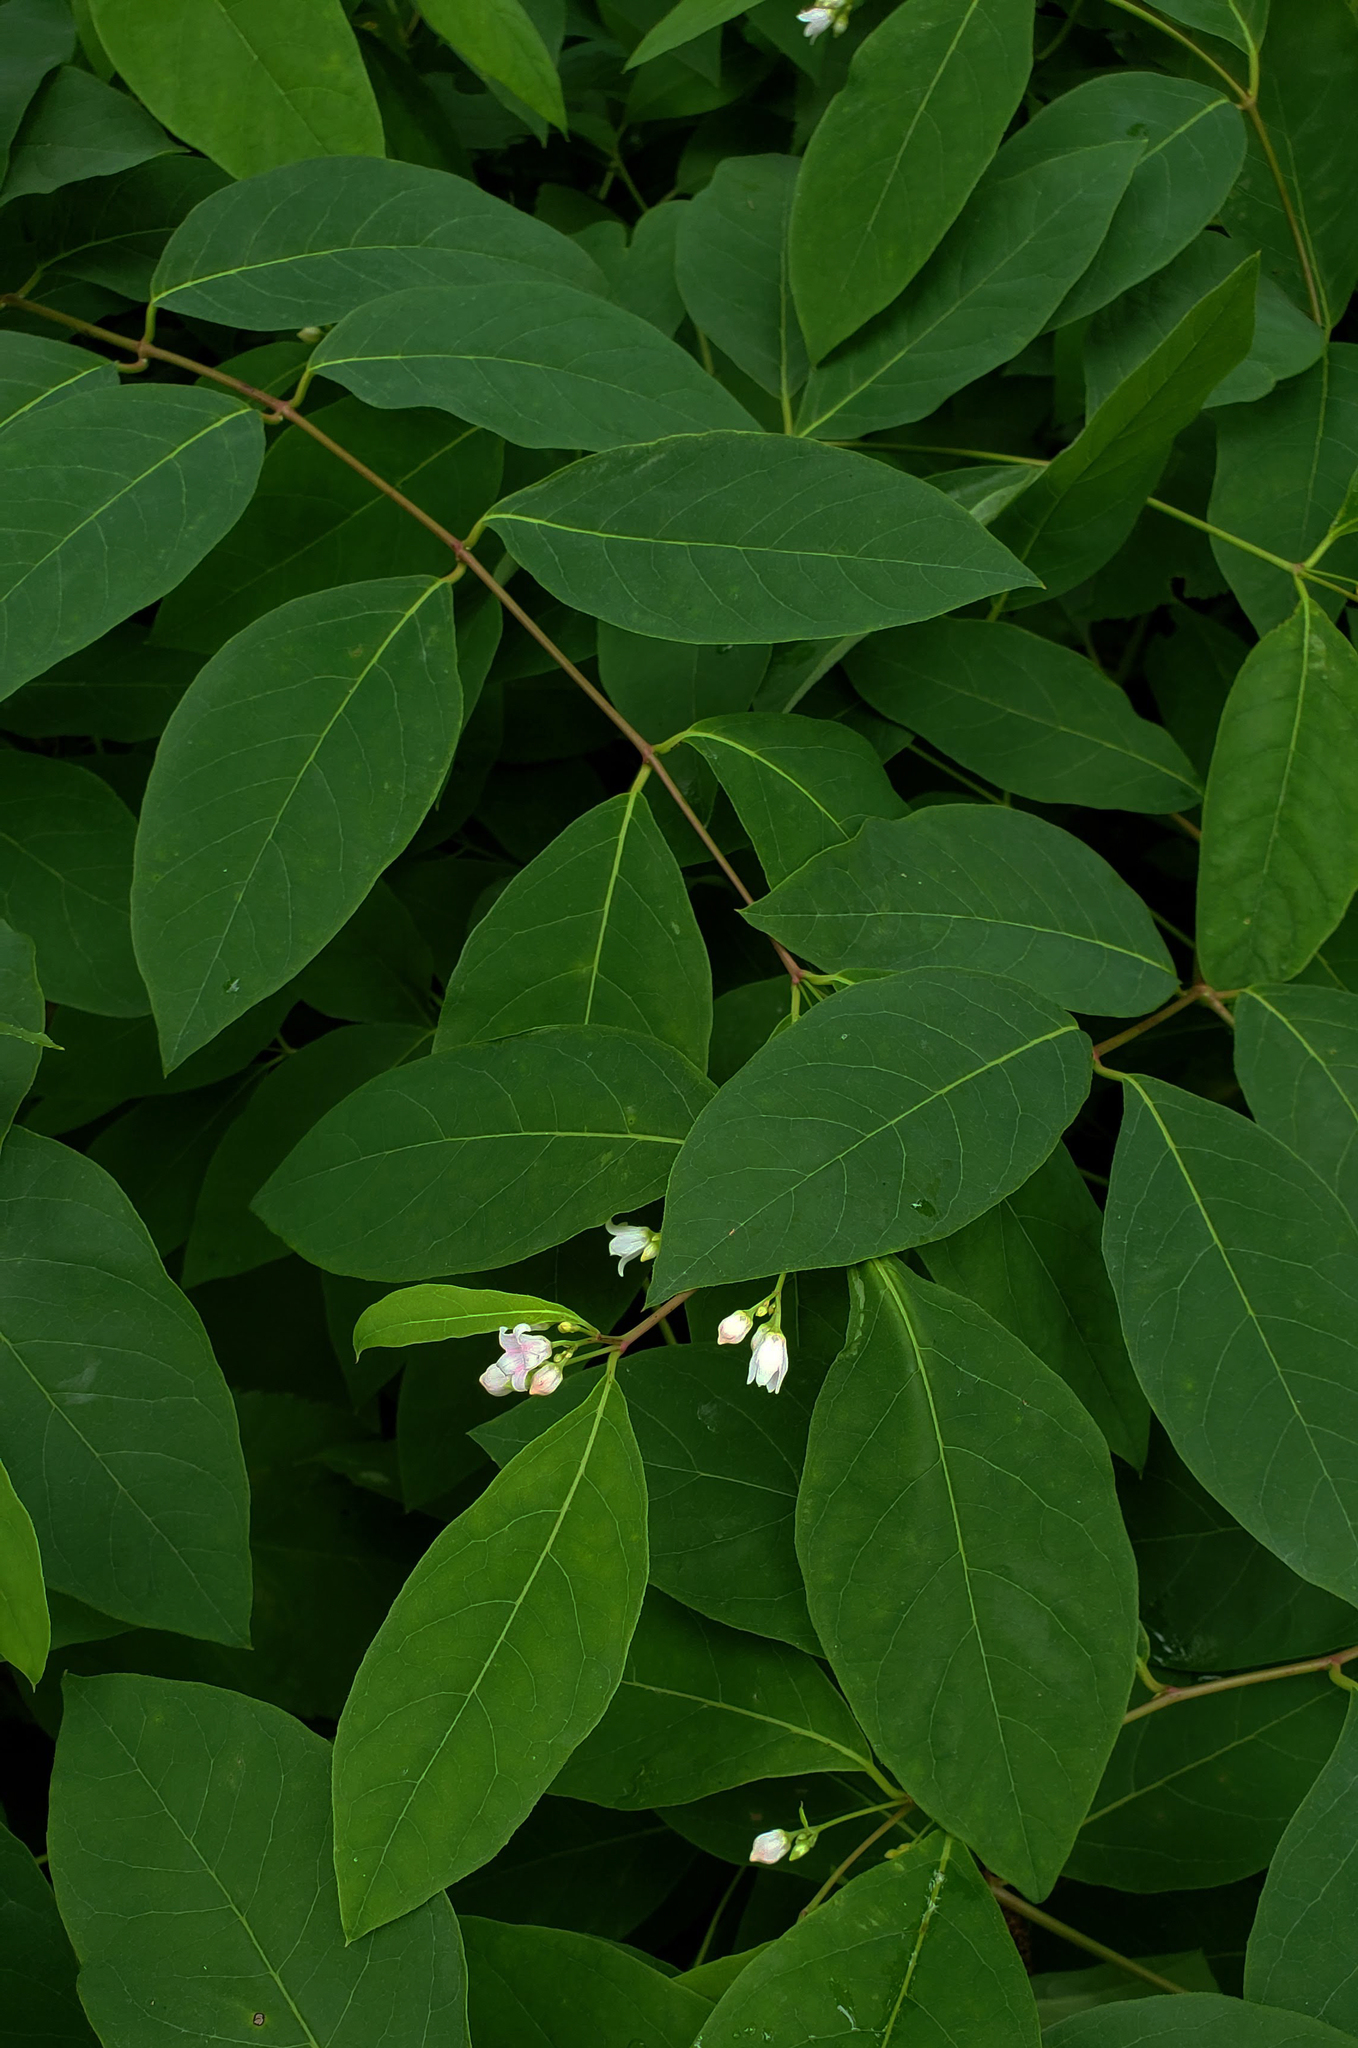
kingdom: Plantae
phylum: Tracheophyta
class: Magnoliopsida
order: Gentianales
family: Apocynaceae
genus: Apocynum
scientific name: Apocynum androsaemifolium
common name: Spreading dogbane
